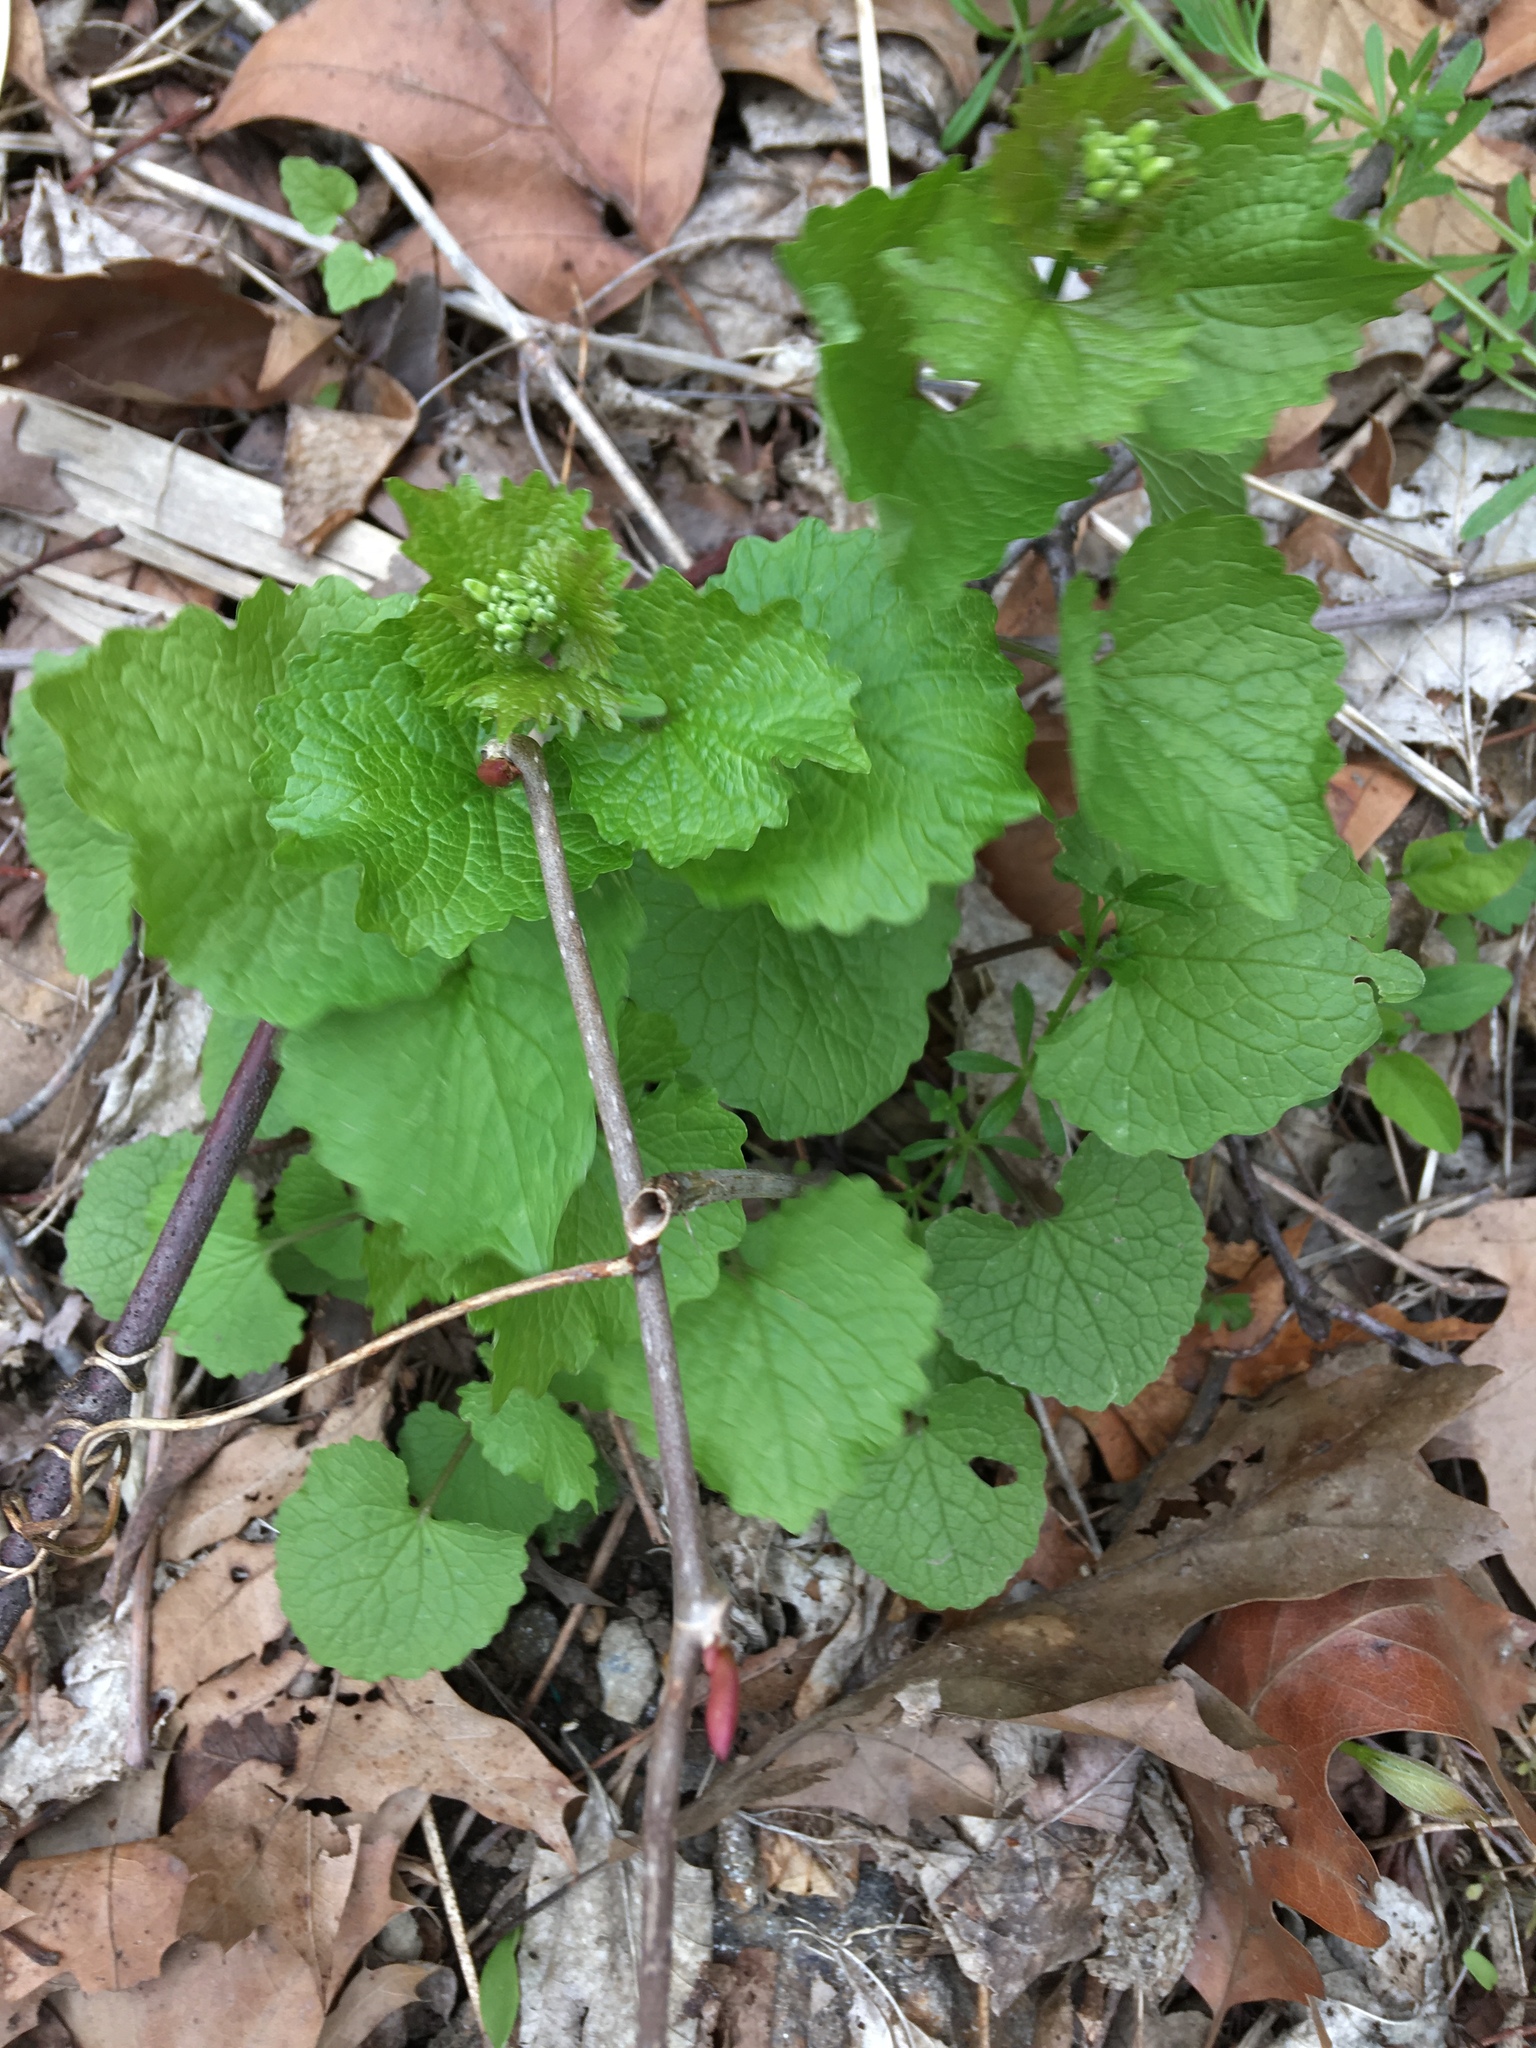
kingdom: Plantae
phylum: Tracheophyta
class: Magnoliopsida
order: Brassicales
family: Brassicaceae
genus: Alliaria
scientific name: Alliaria petiolata
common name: Garlic mustard
